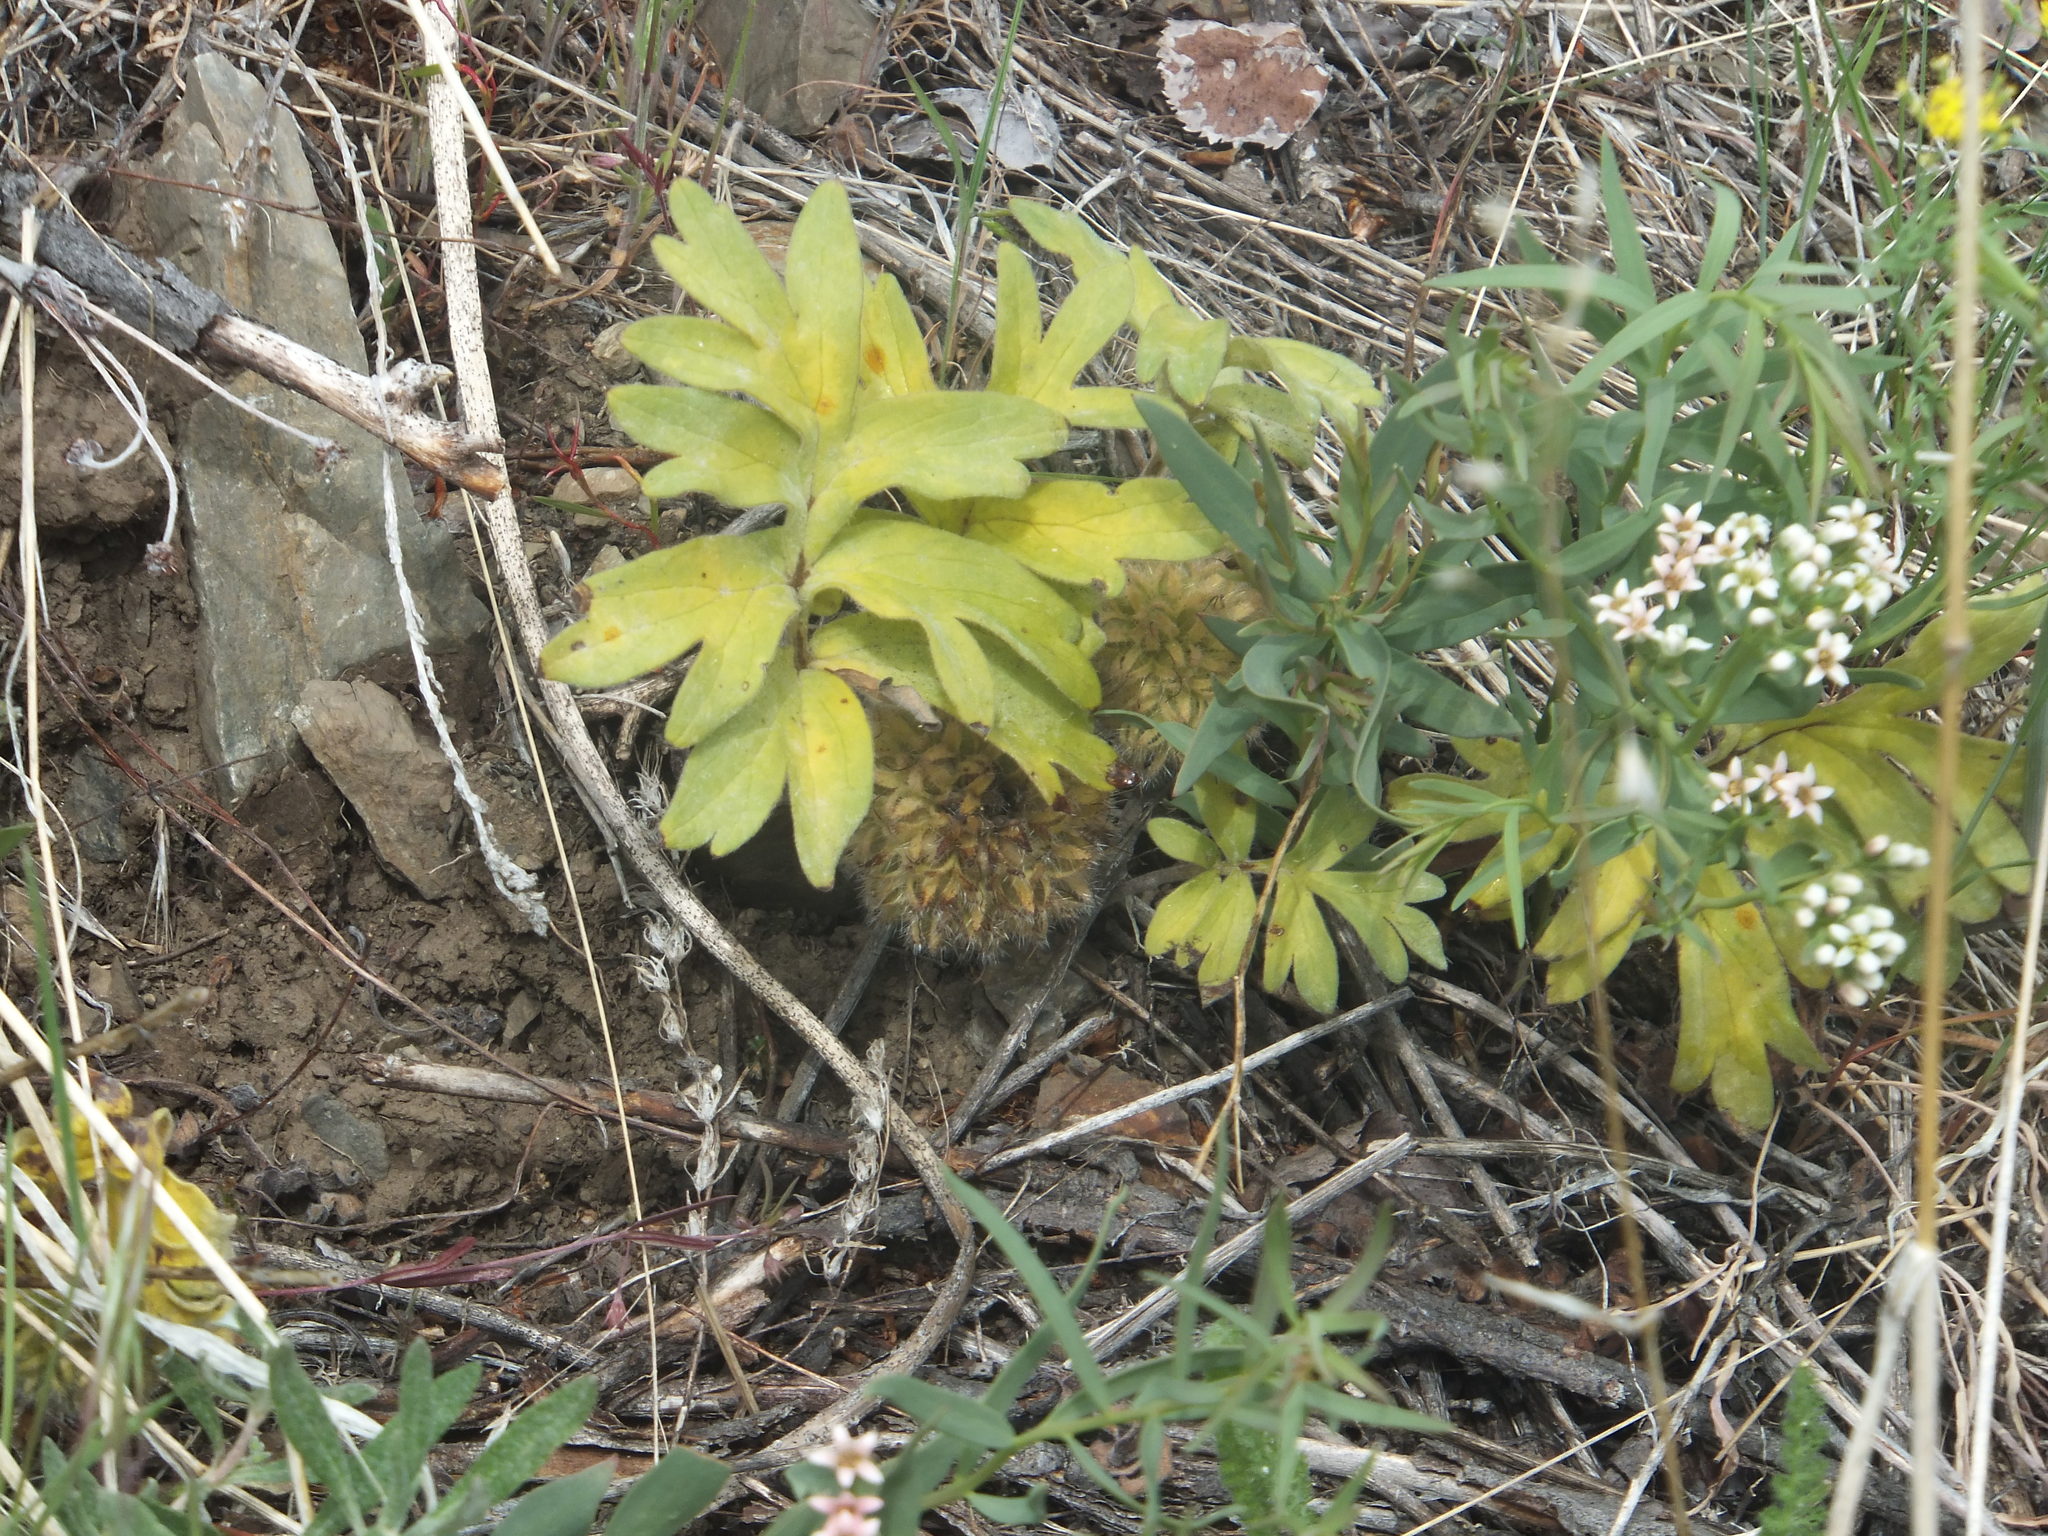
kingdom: Plantae
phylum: Tracheophyta
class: Magnoliopsida
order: Boraginales
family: Hydrophyllaceae
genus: Hydrophyllum
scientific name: Hydrophyllum capitatum
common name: Woollen-breeches
